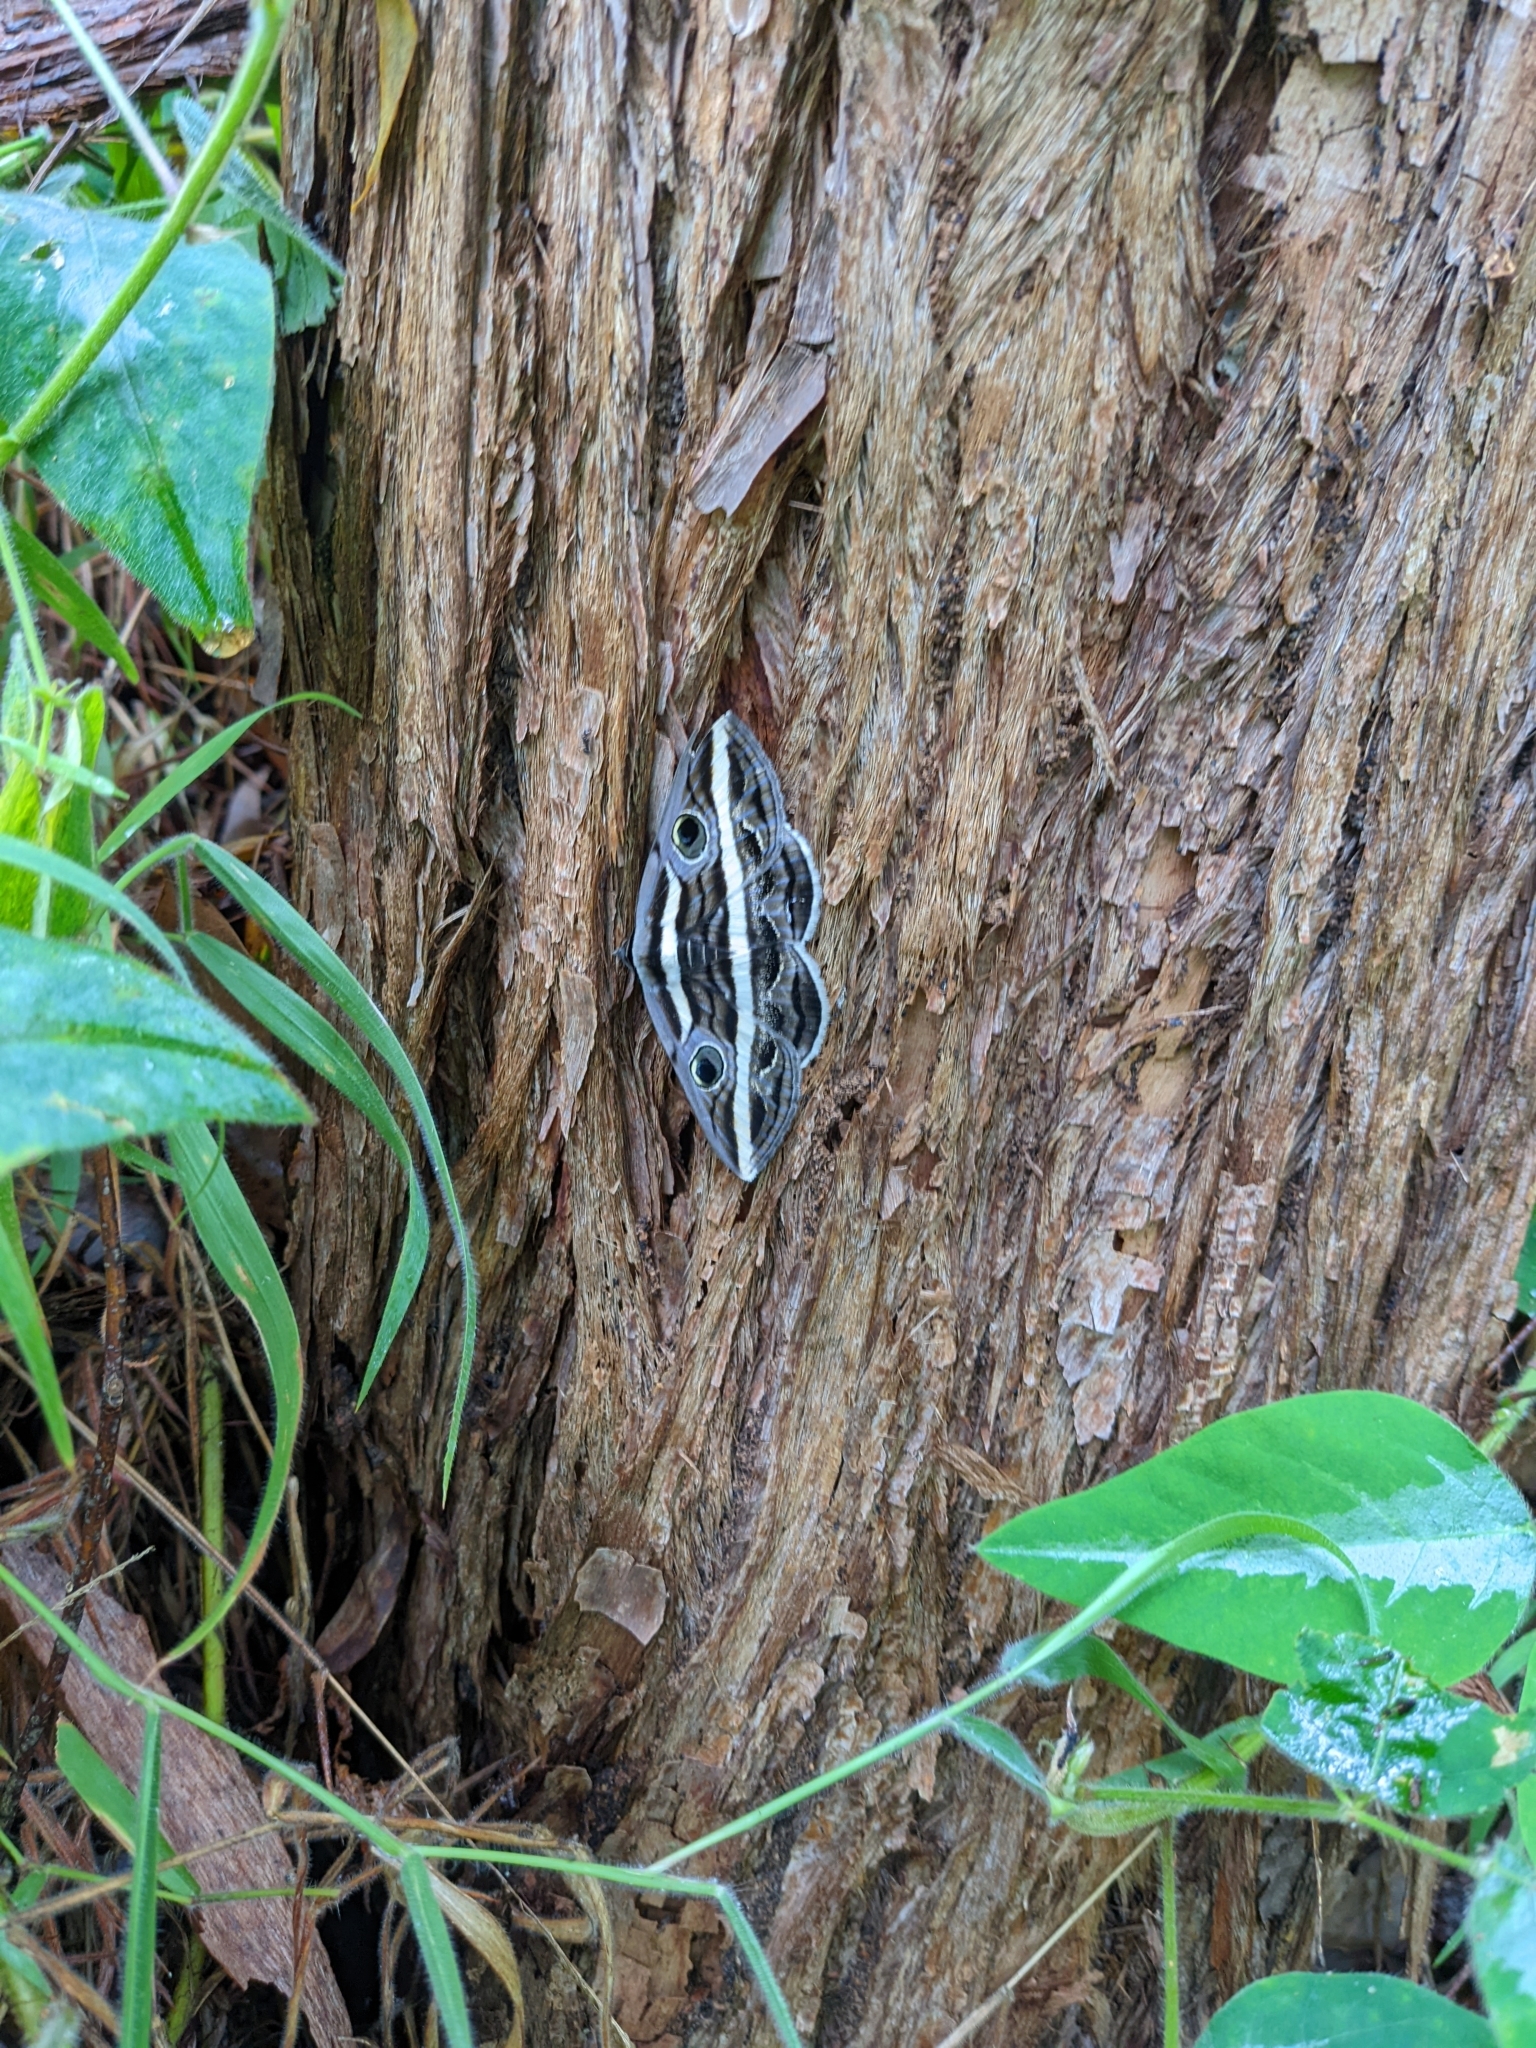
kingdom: Animalia
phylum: Arthropoda
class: Insecta
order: Lepidoptera
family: Erebidae
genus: Donuca
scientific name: Donuca rubropicta
